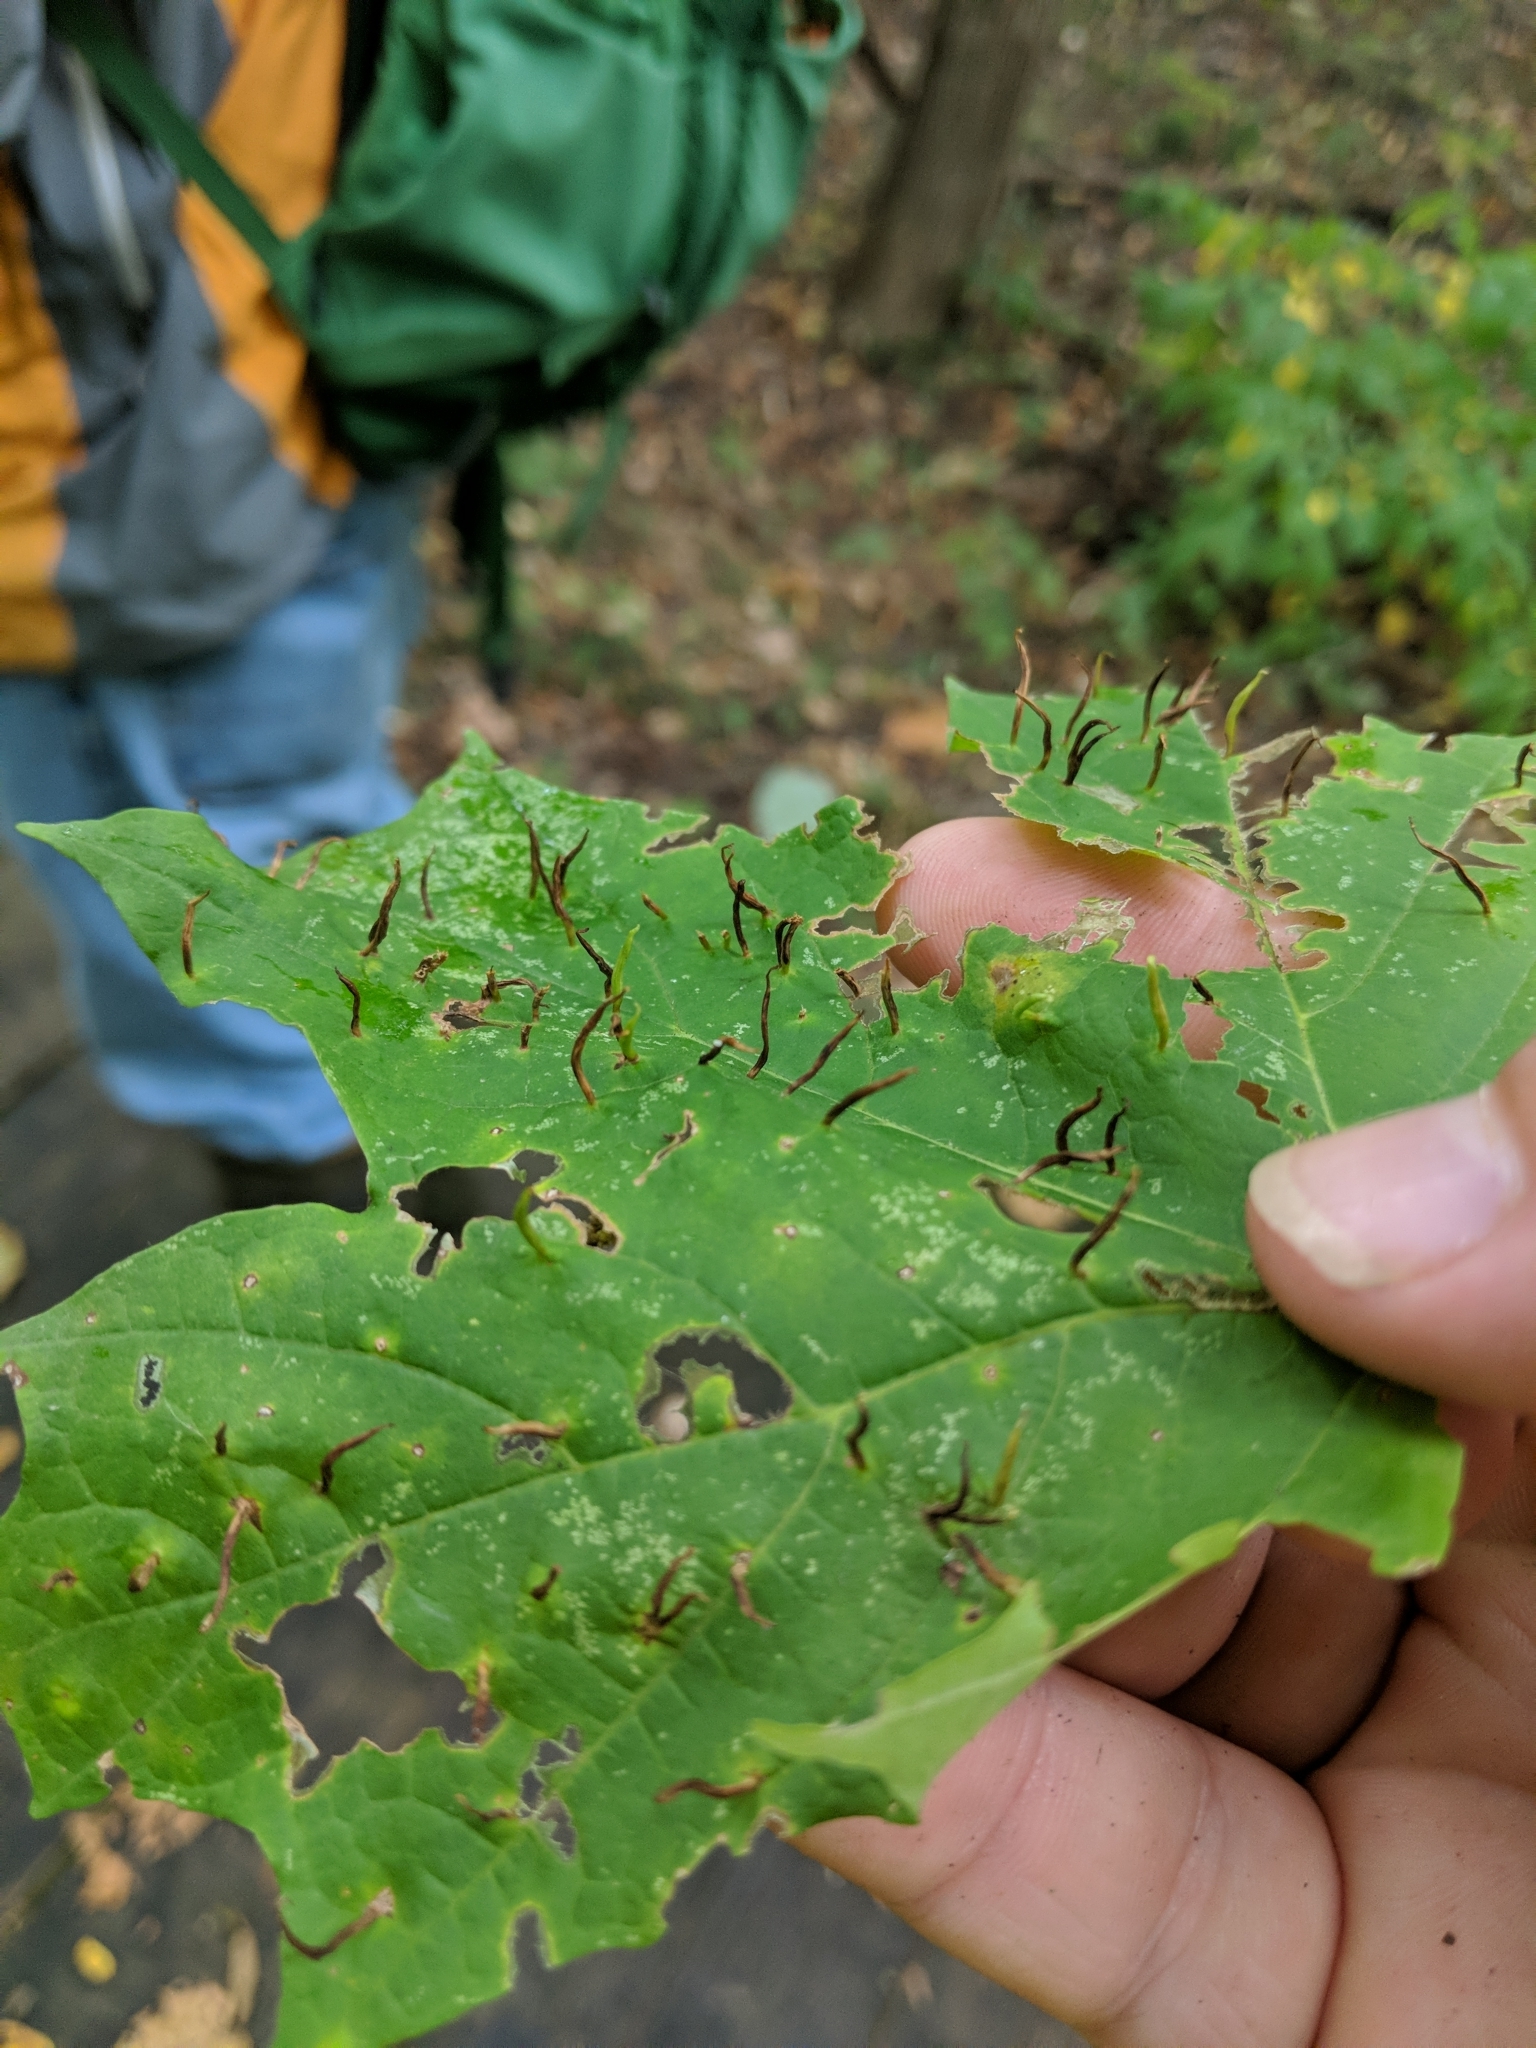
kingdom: Animalia
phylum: Arthropoda
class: Arachnida
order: Trombidiformes
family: Eriophyidae
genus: Vasates
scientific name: Vasates aceriscrumena
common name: Maple spindle gall mite
